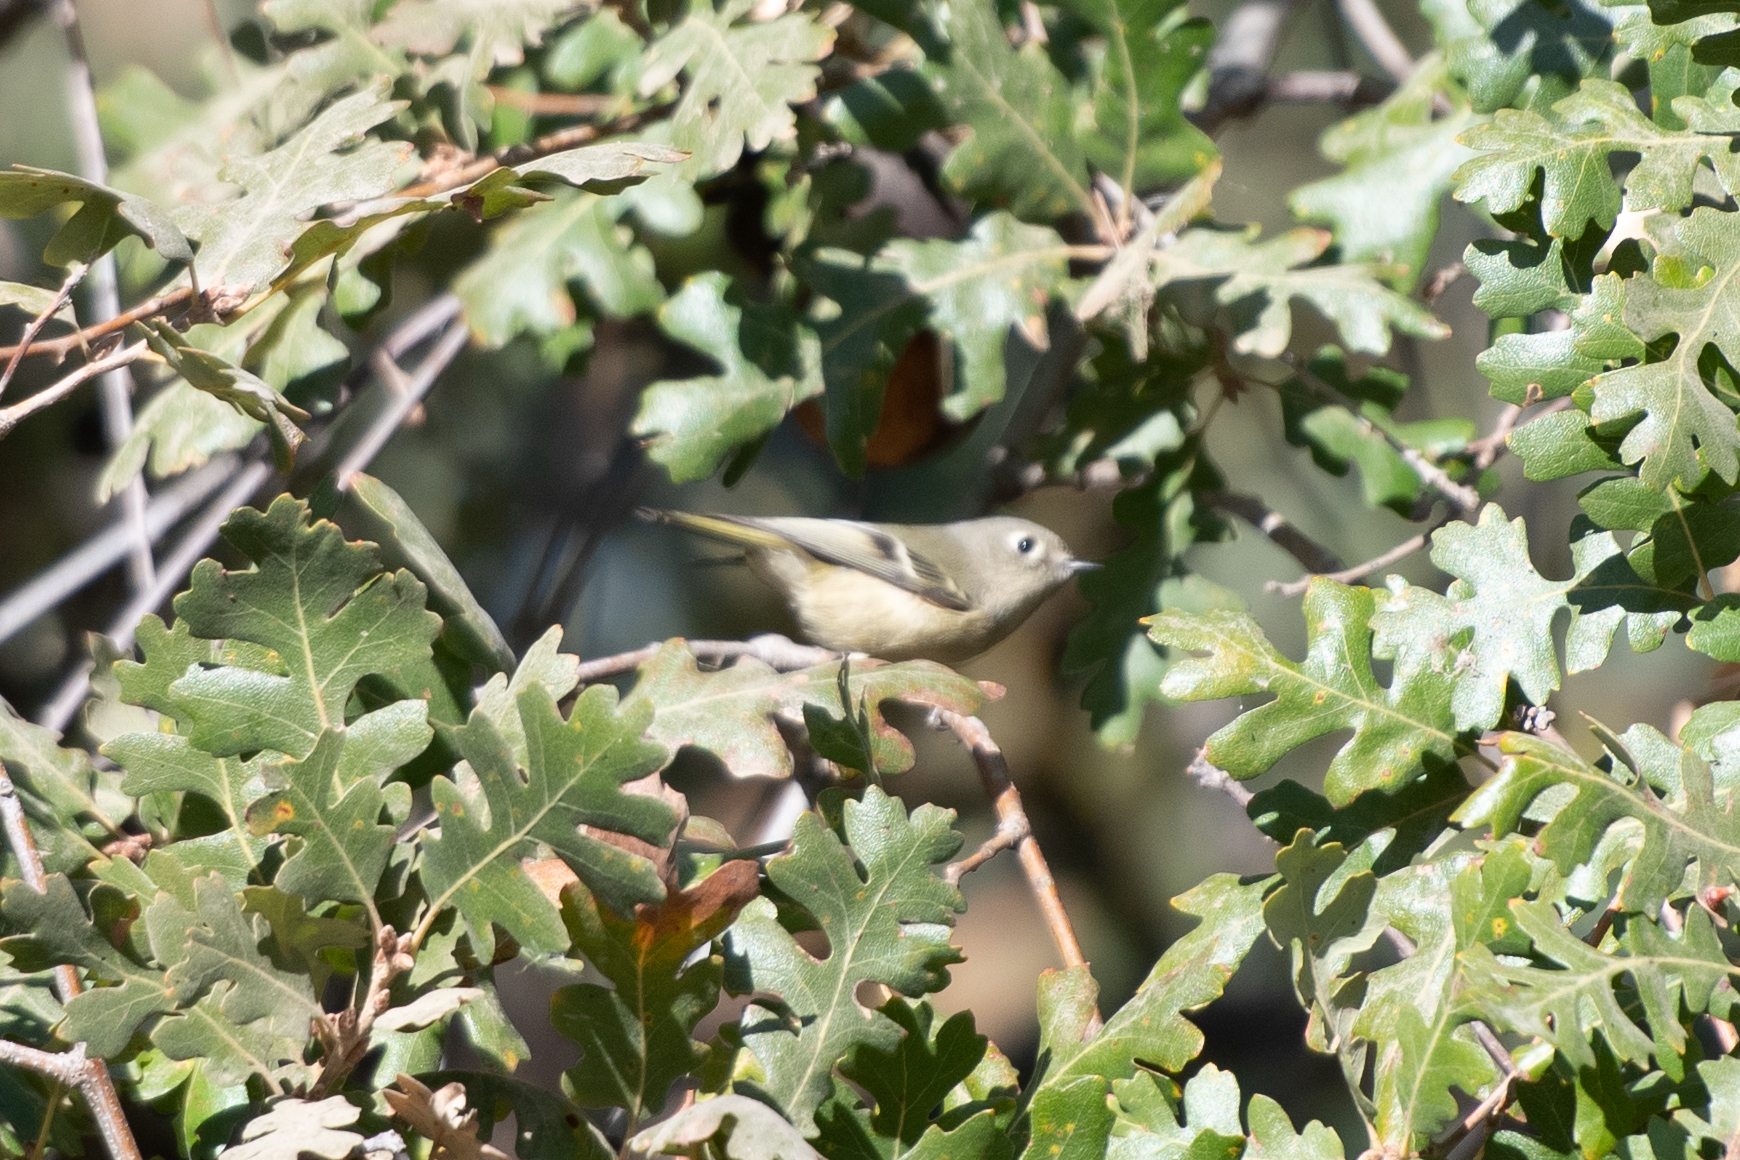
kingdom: Animalia
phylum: Chordata
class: Aves
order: Passeriformes
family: Regulidae
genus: Regulus
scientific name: Regulus calendula
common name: Ruby-crowned kinglet
